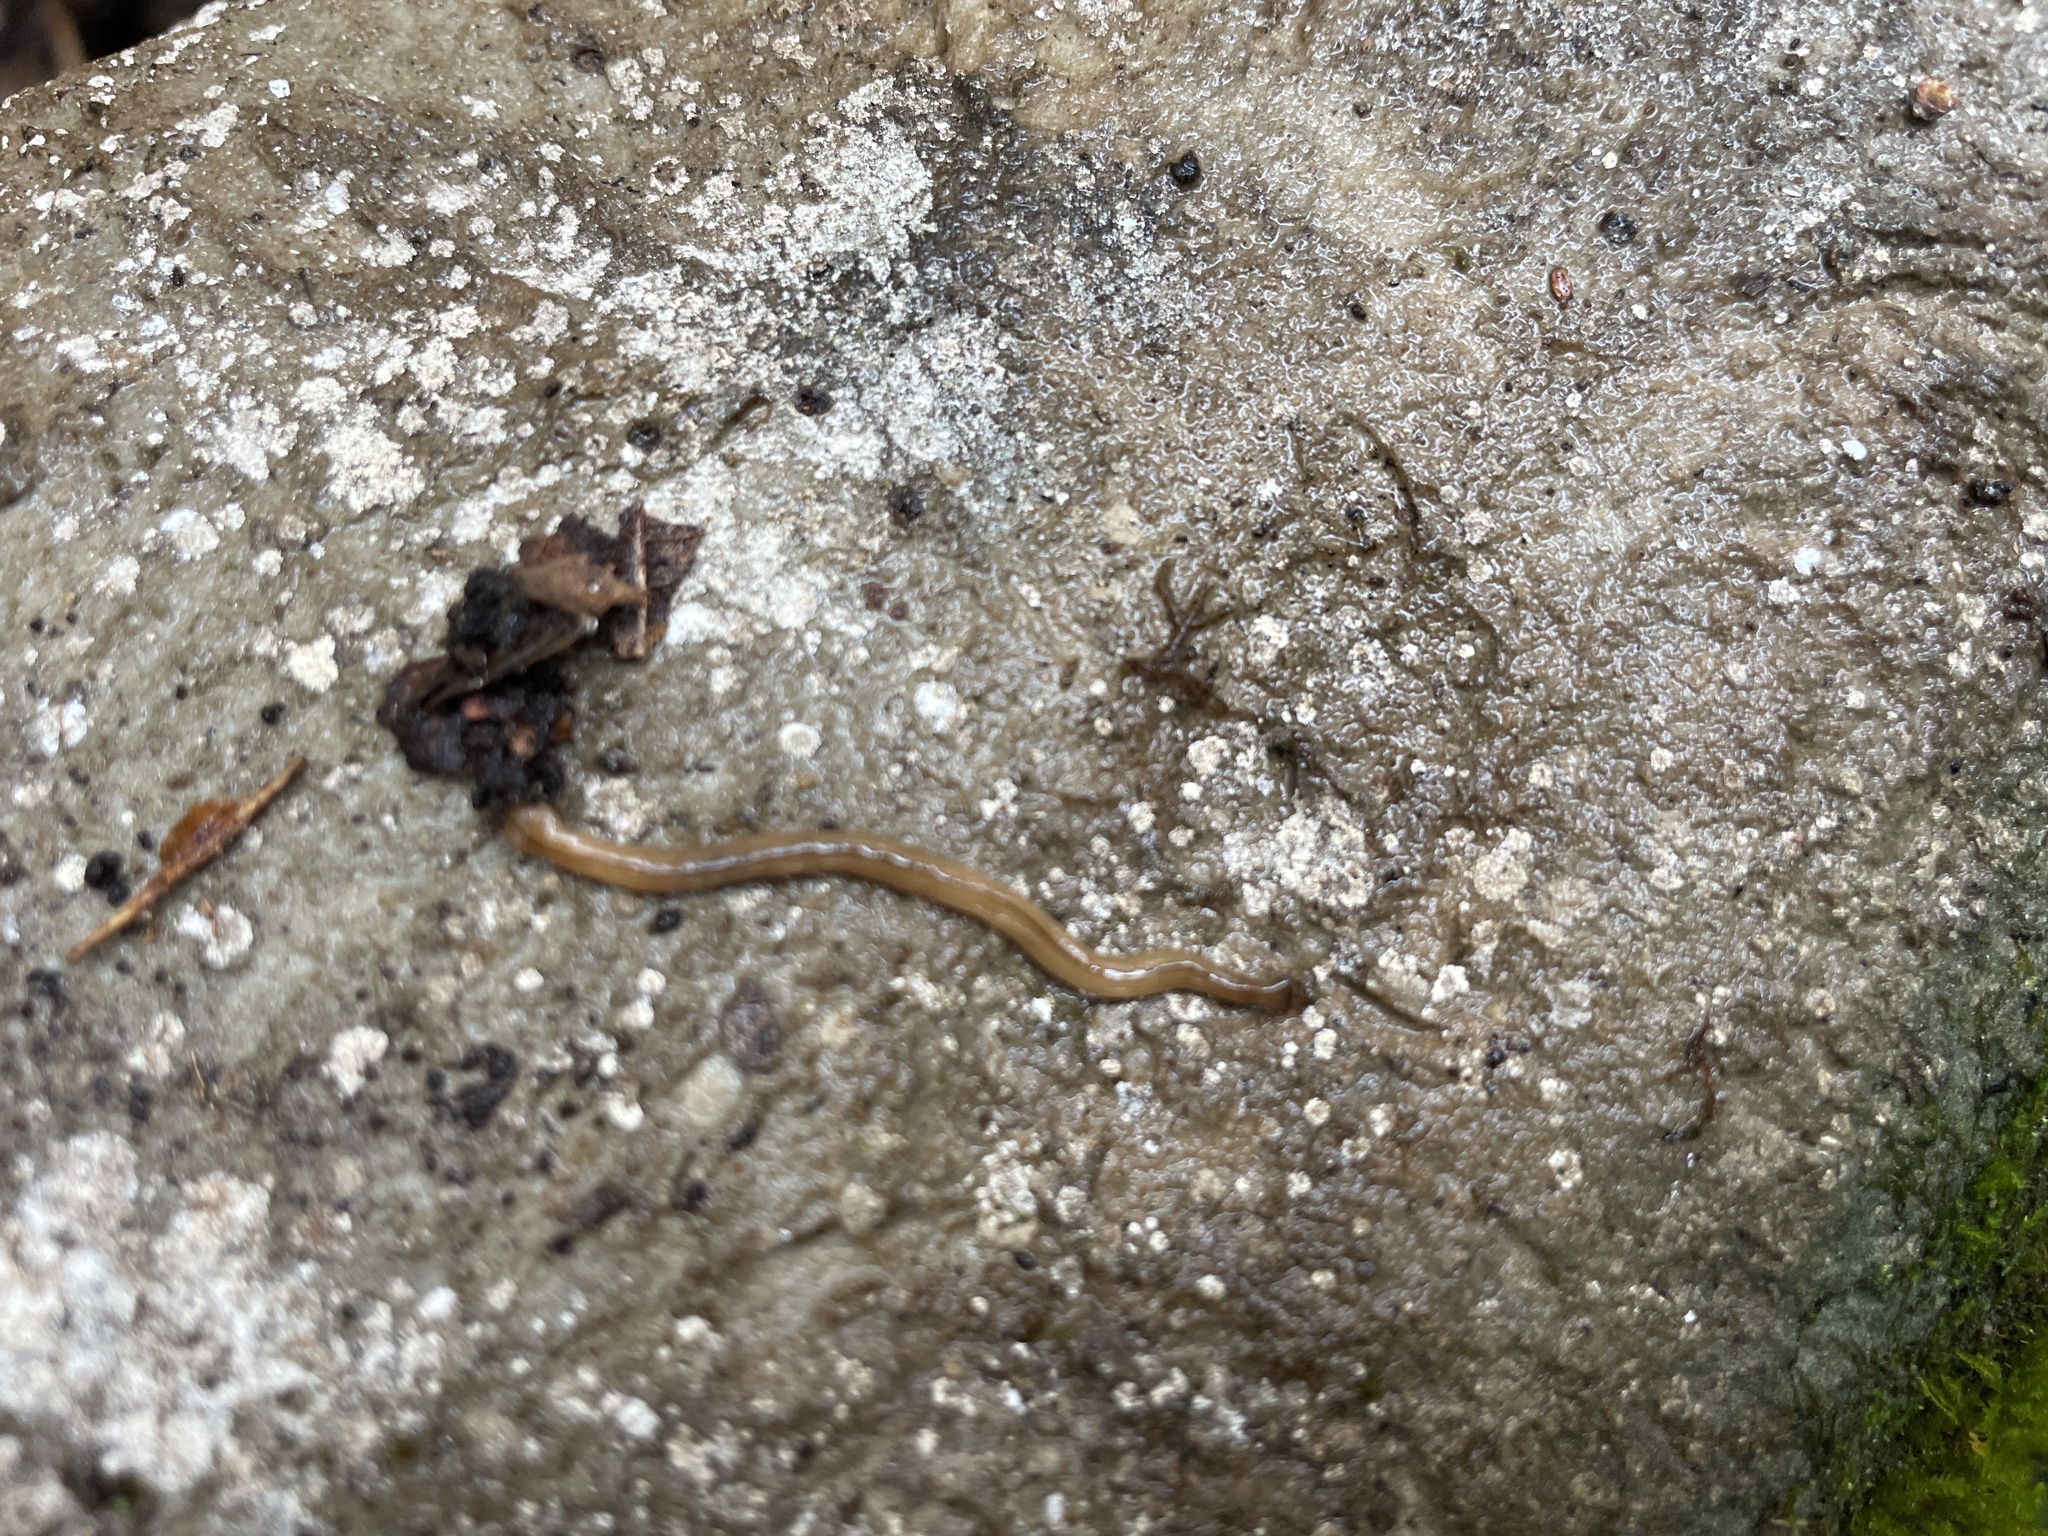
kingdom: Animalia
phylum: Platyhelminthes
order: Tricladida
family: Geoplanidae
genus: Bipalium
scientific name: Bipalium adventitium
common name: Land planarian
